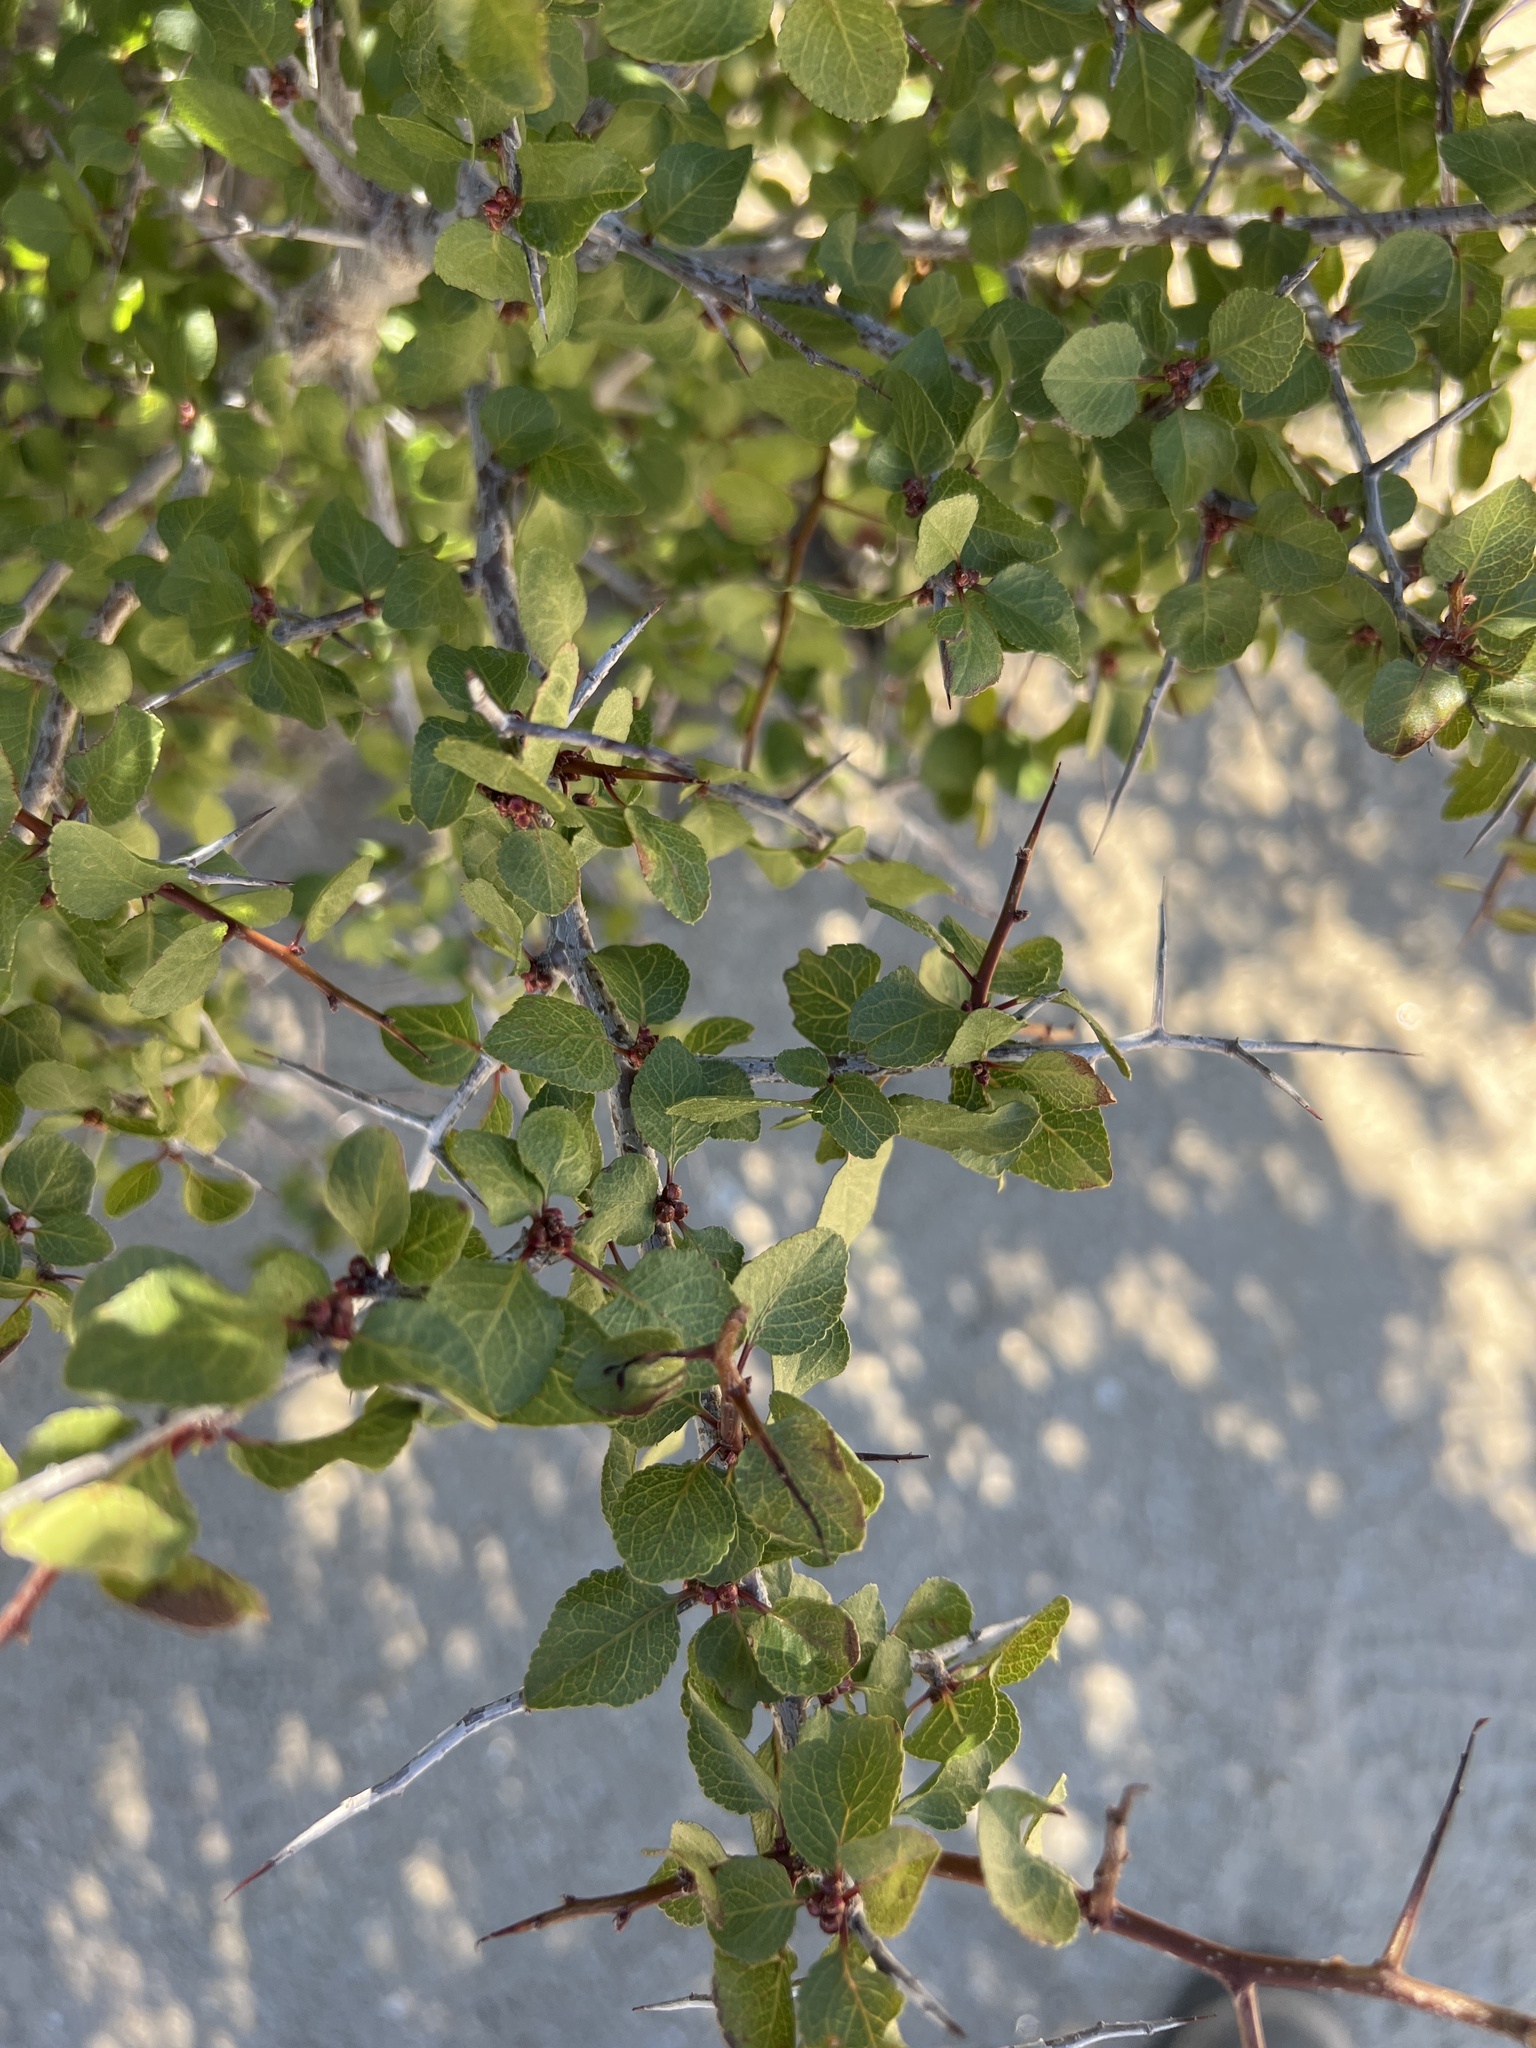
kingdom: Plantae
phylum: Tracheophyta
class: Magnoliopsida
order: Rosales
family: Rosaceae
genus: Prunus
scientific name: Prunus fremontii
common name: Desert apricot
